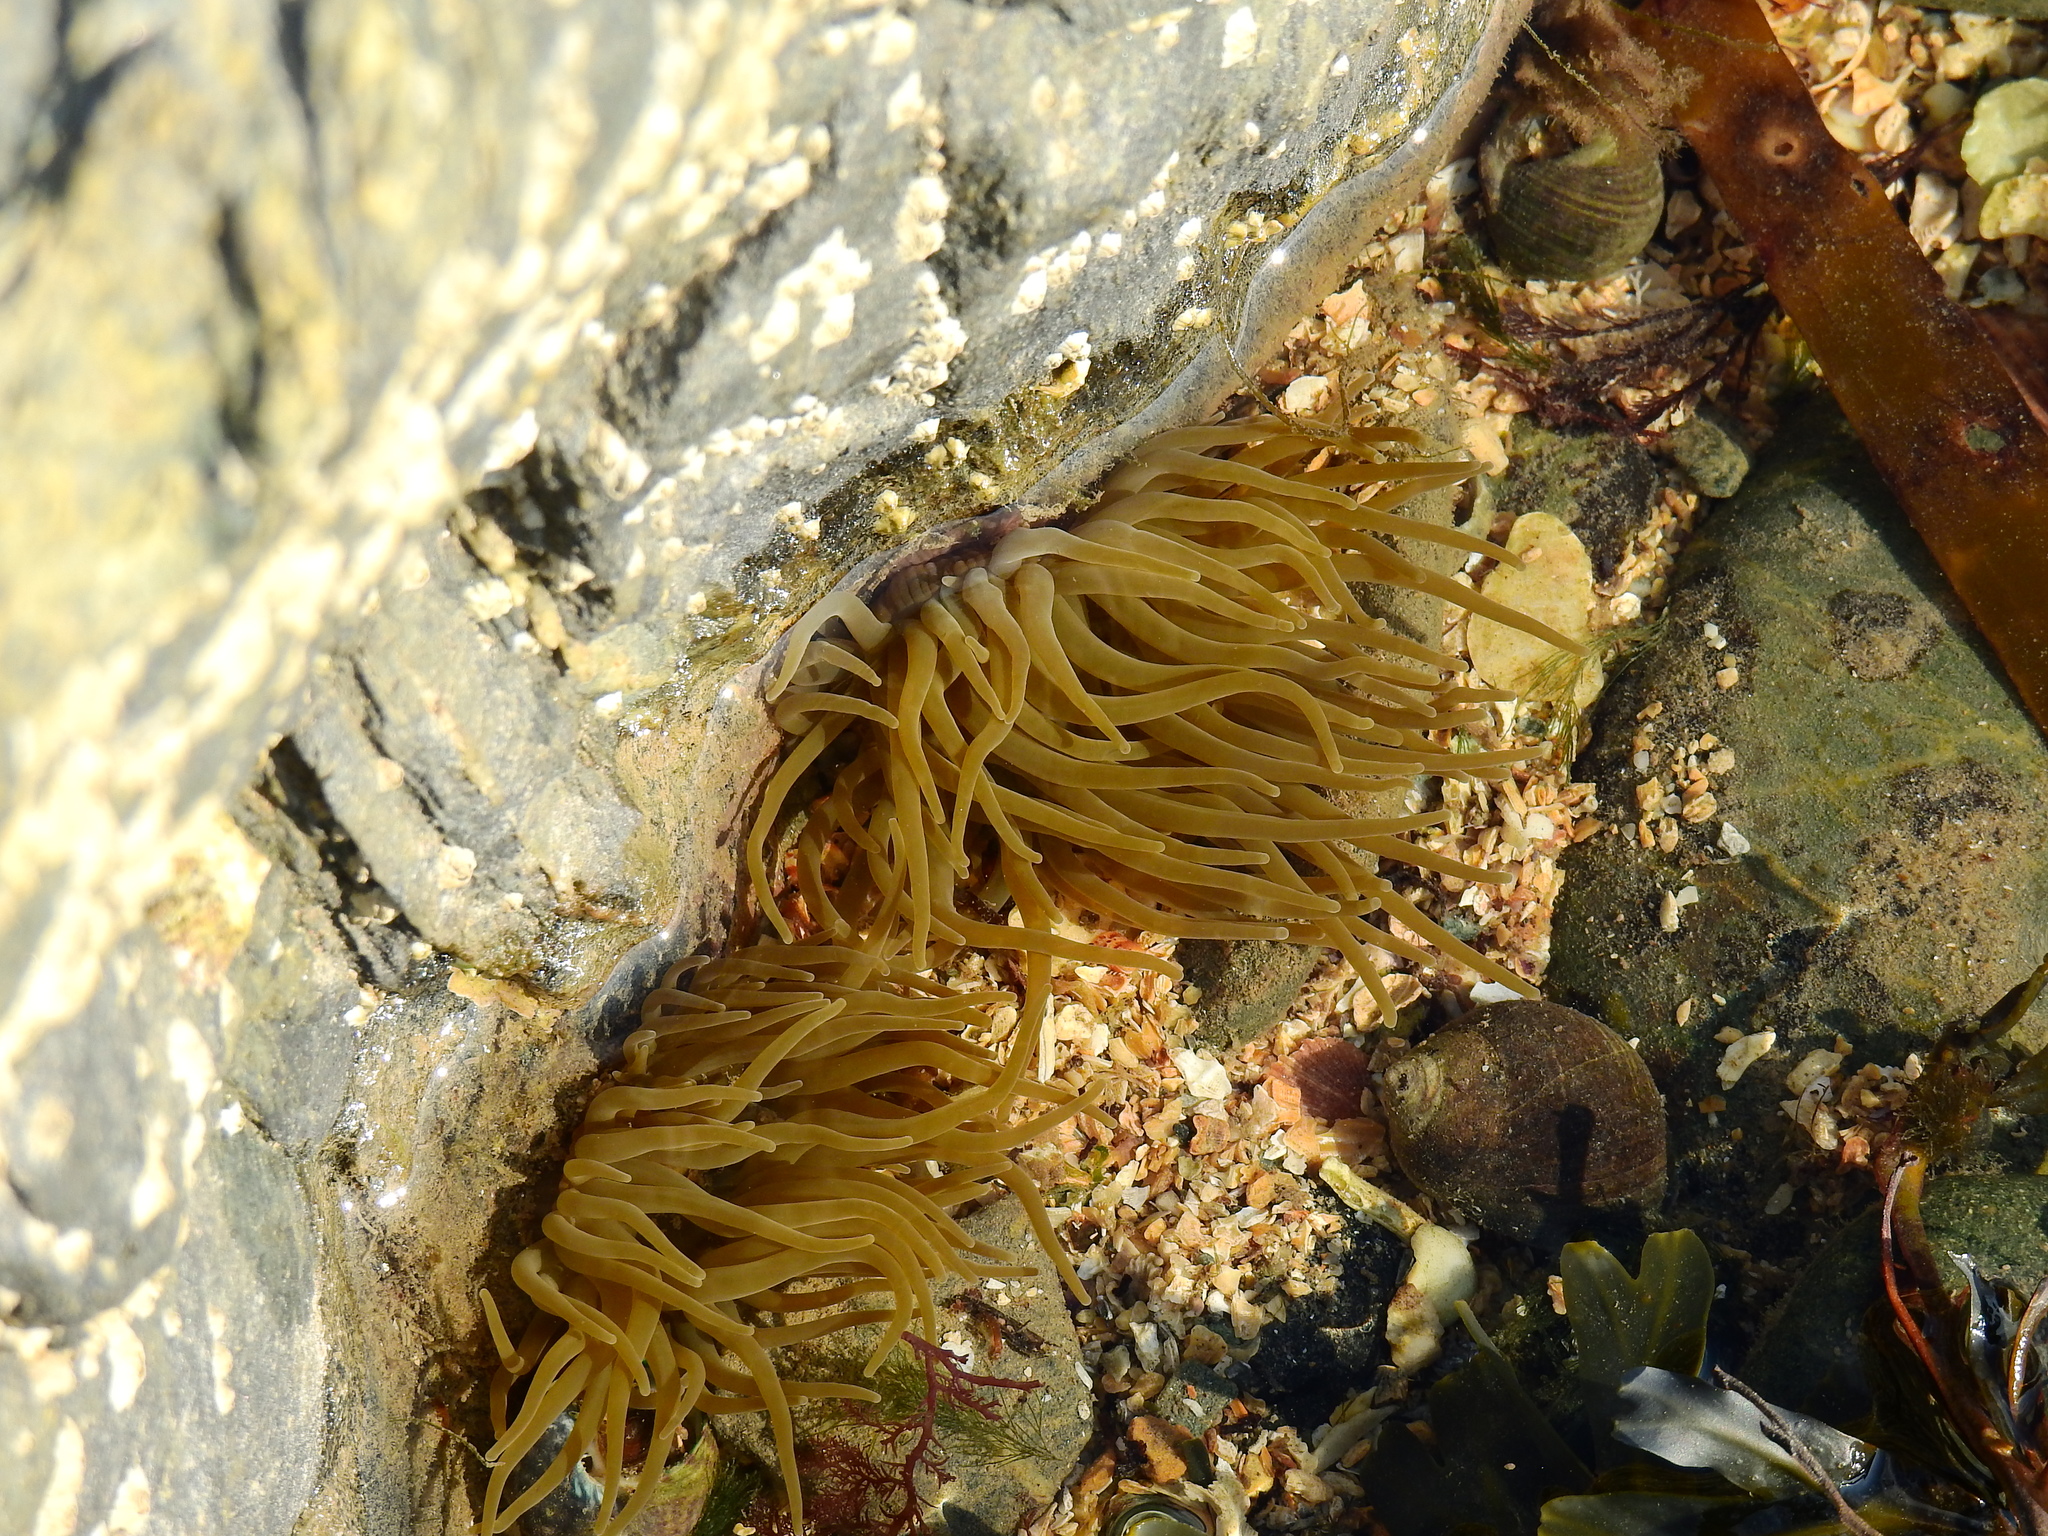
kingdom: Animalia
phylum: Cnidaria
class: Anthozoa
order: Actiniaria
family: Actiniidae
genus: Anemonia
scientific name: Anemonia viridis
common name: Snakelocks anemone
